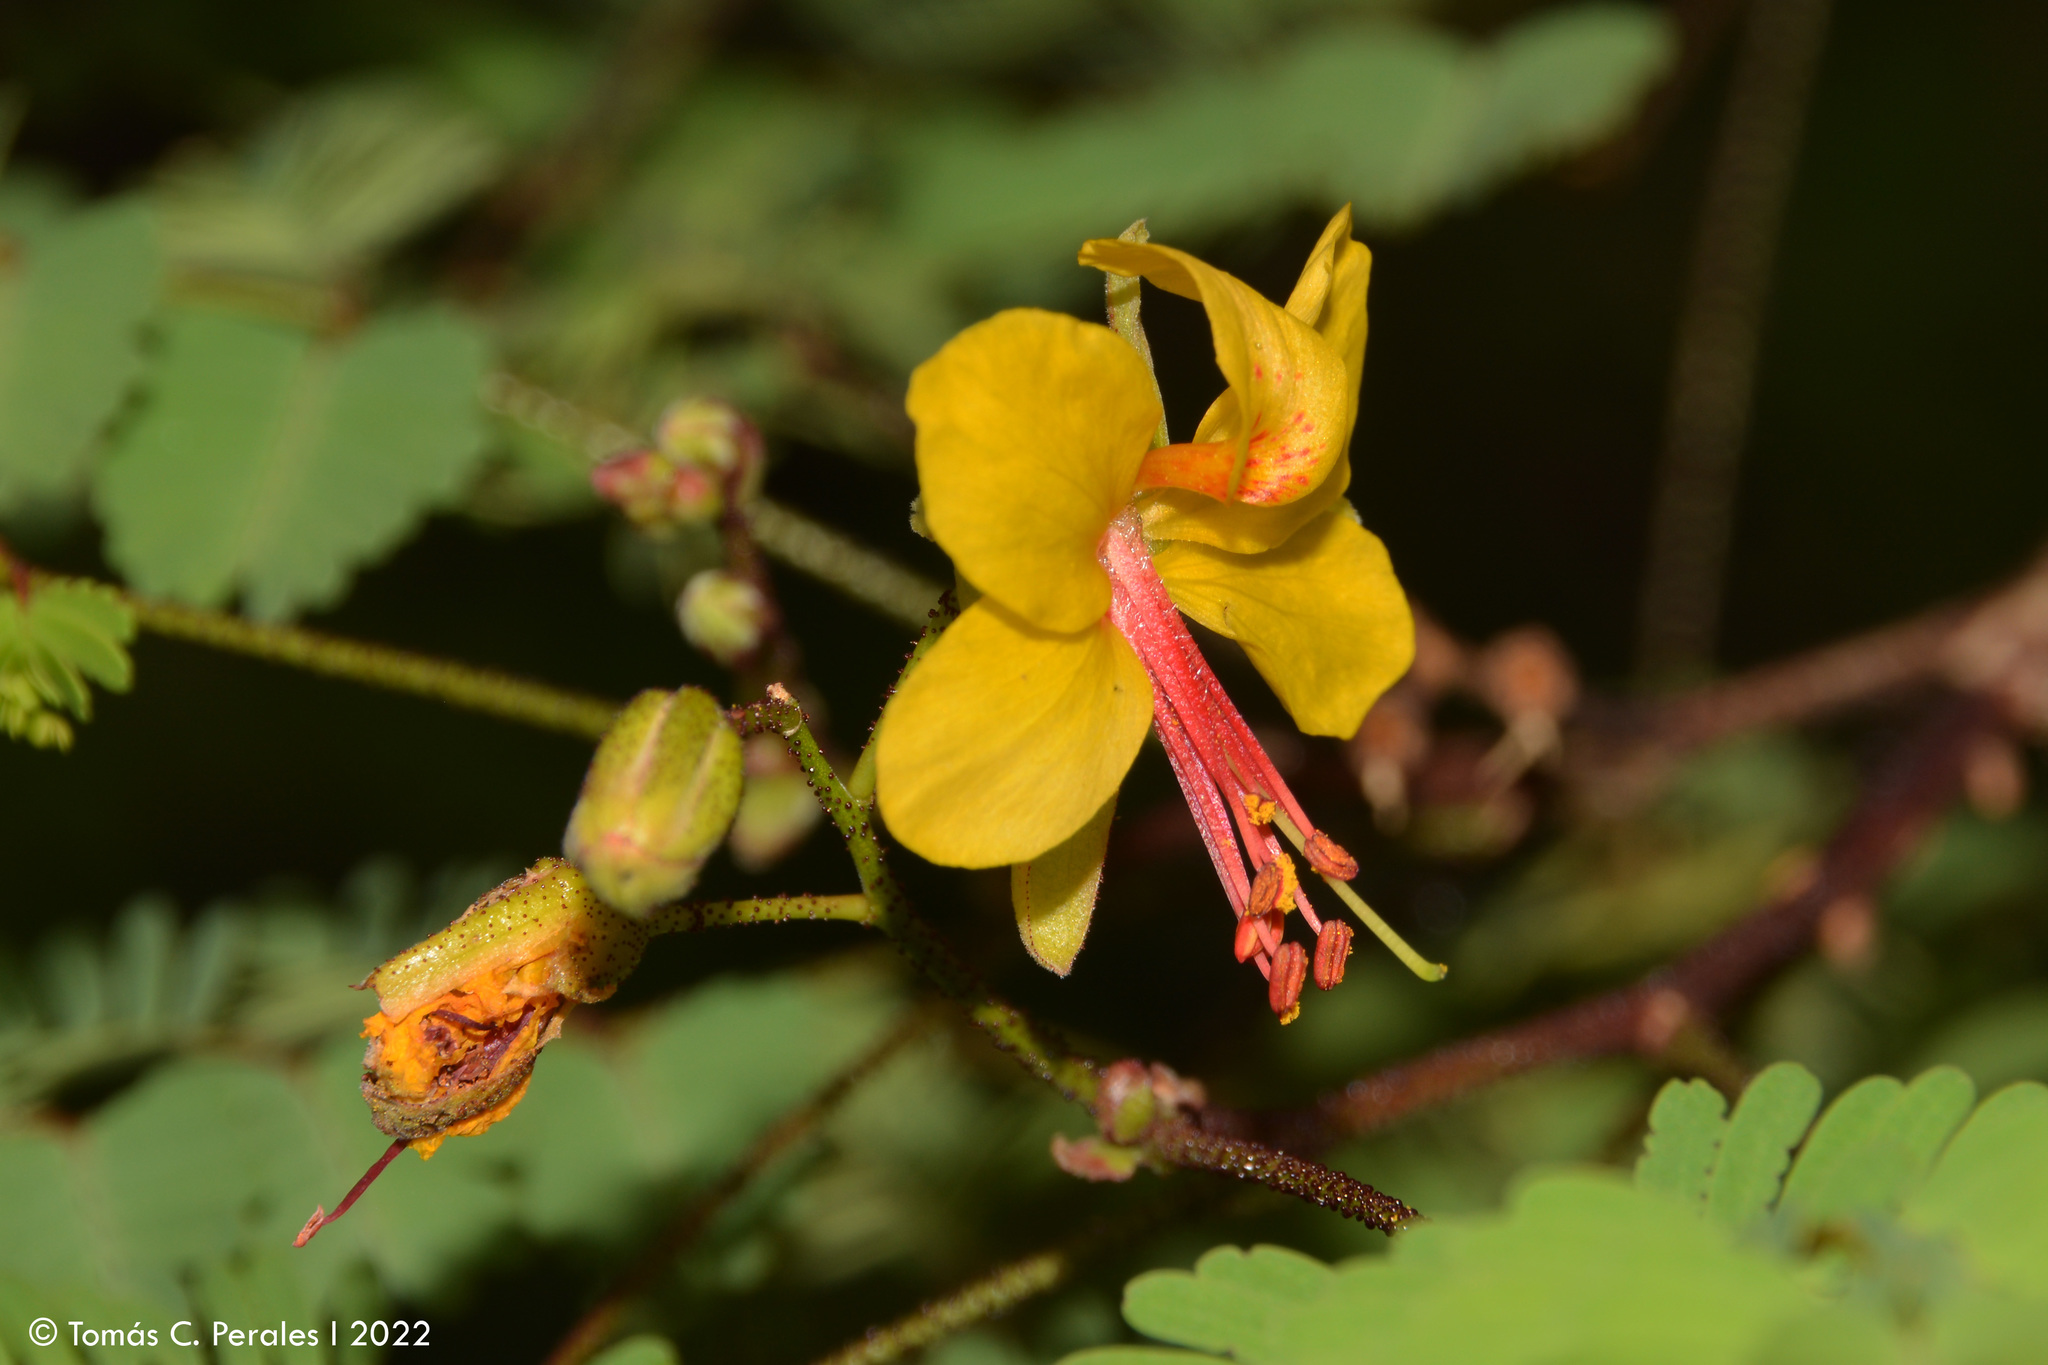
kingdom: Plantae
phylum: Tracheophyta
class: Magnoliopsida
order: Fabales
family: Fabaceae
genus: Arquita
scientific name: Arquita mimosifolia
